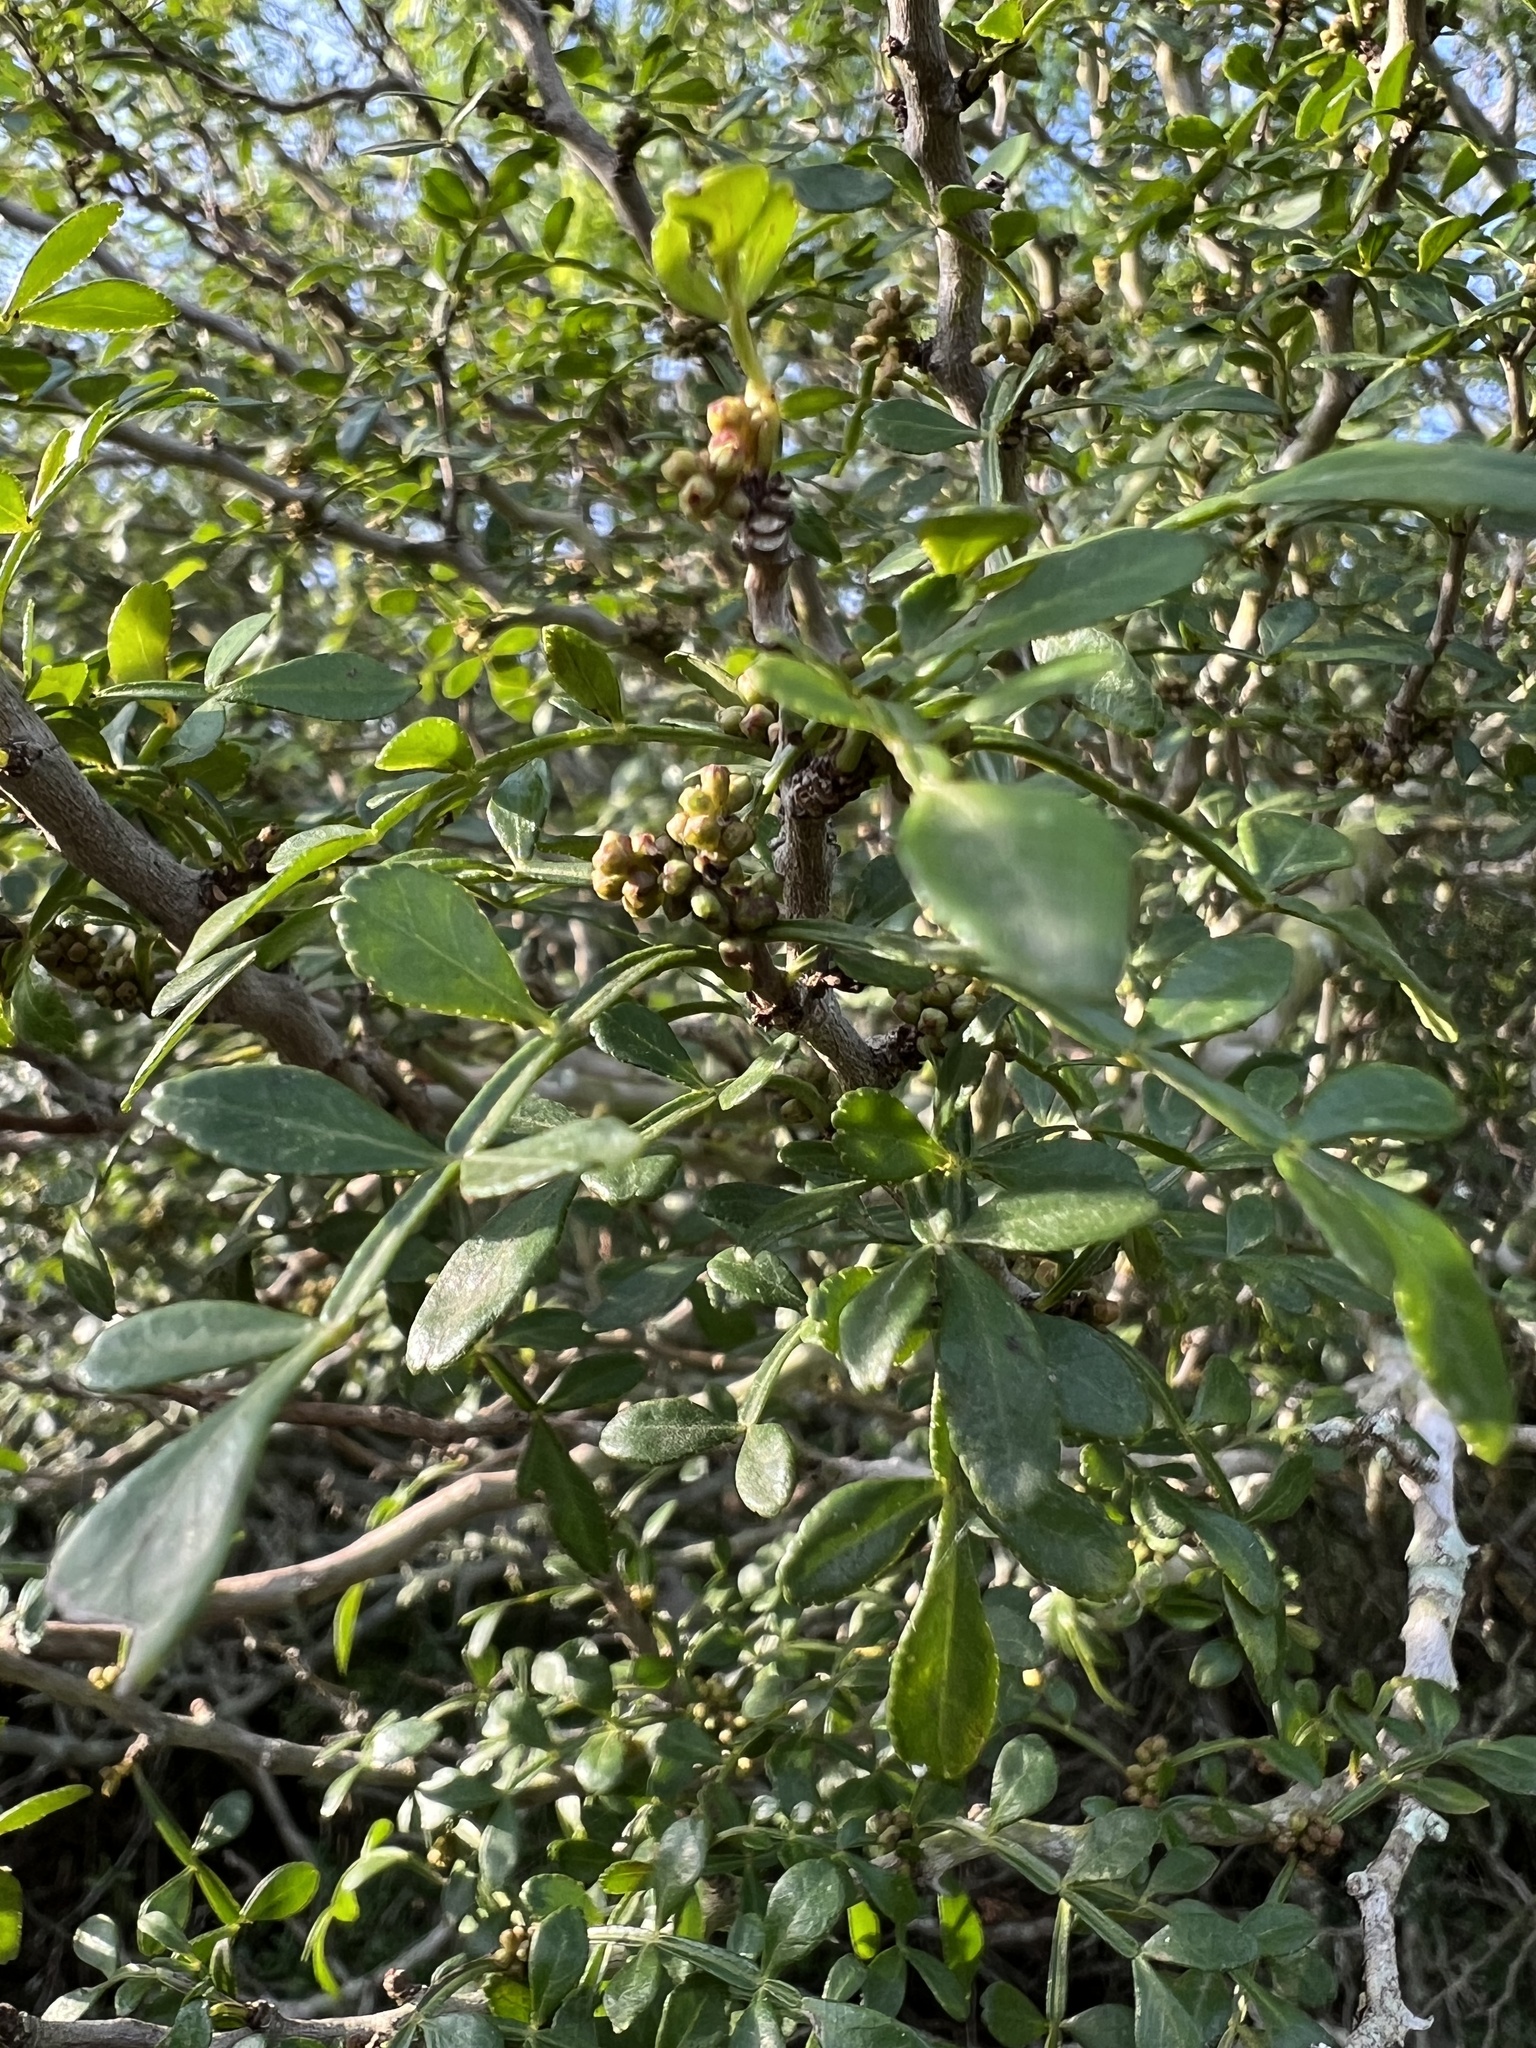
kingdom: Plantae
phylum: Tracheophyta
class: Magnoliopsida
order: Sapindales
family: Rutaceae
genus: Zanthoxylum
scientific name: Zanthoxylum fagara
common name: Lime prickly-ash
